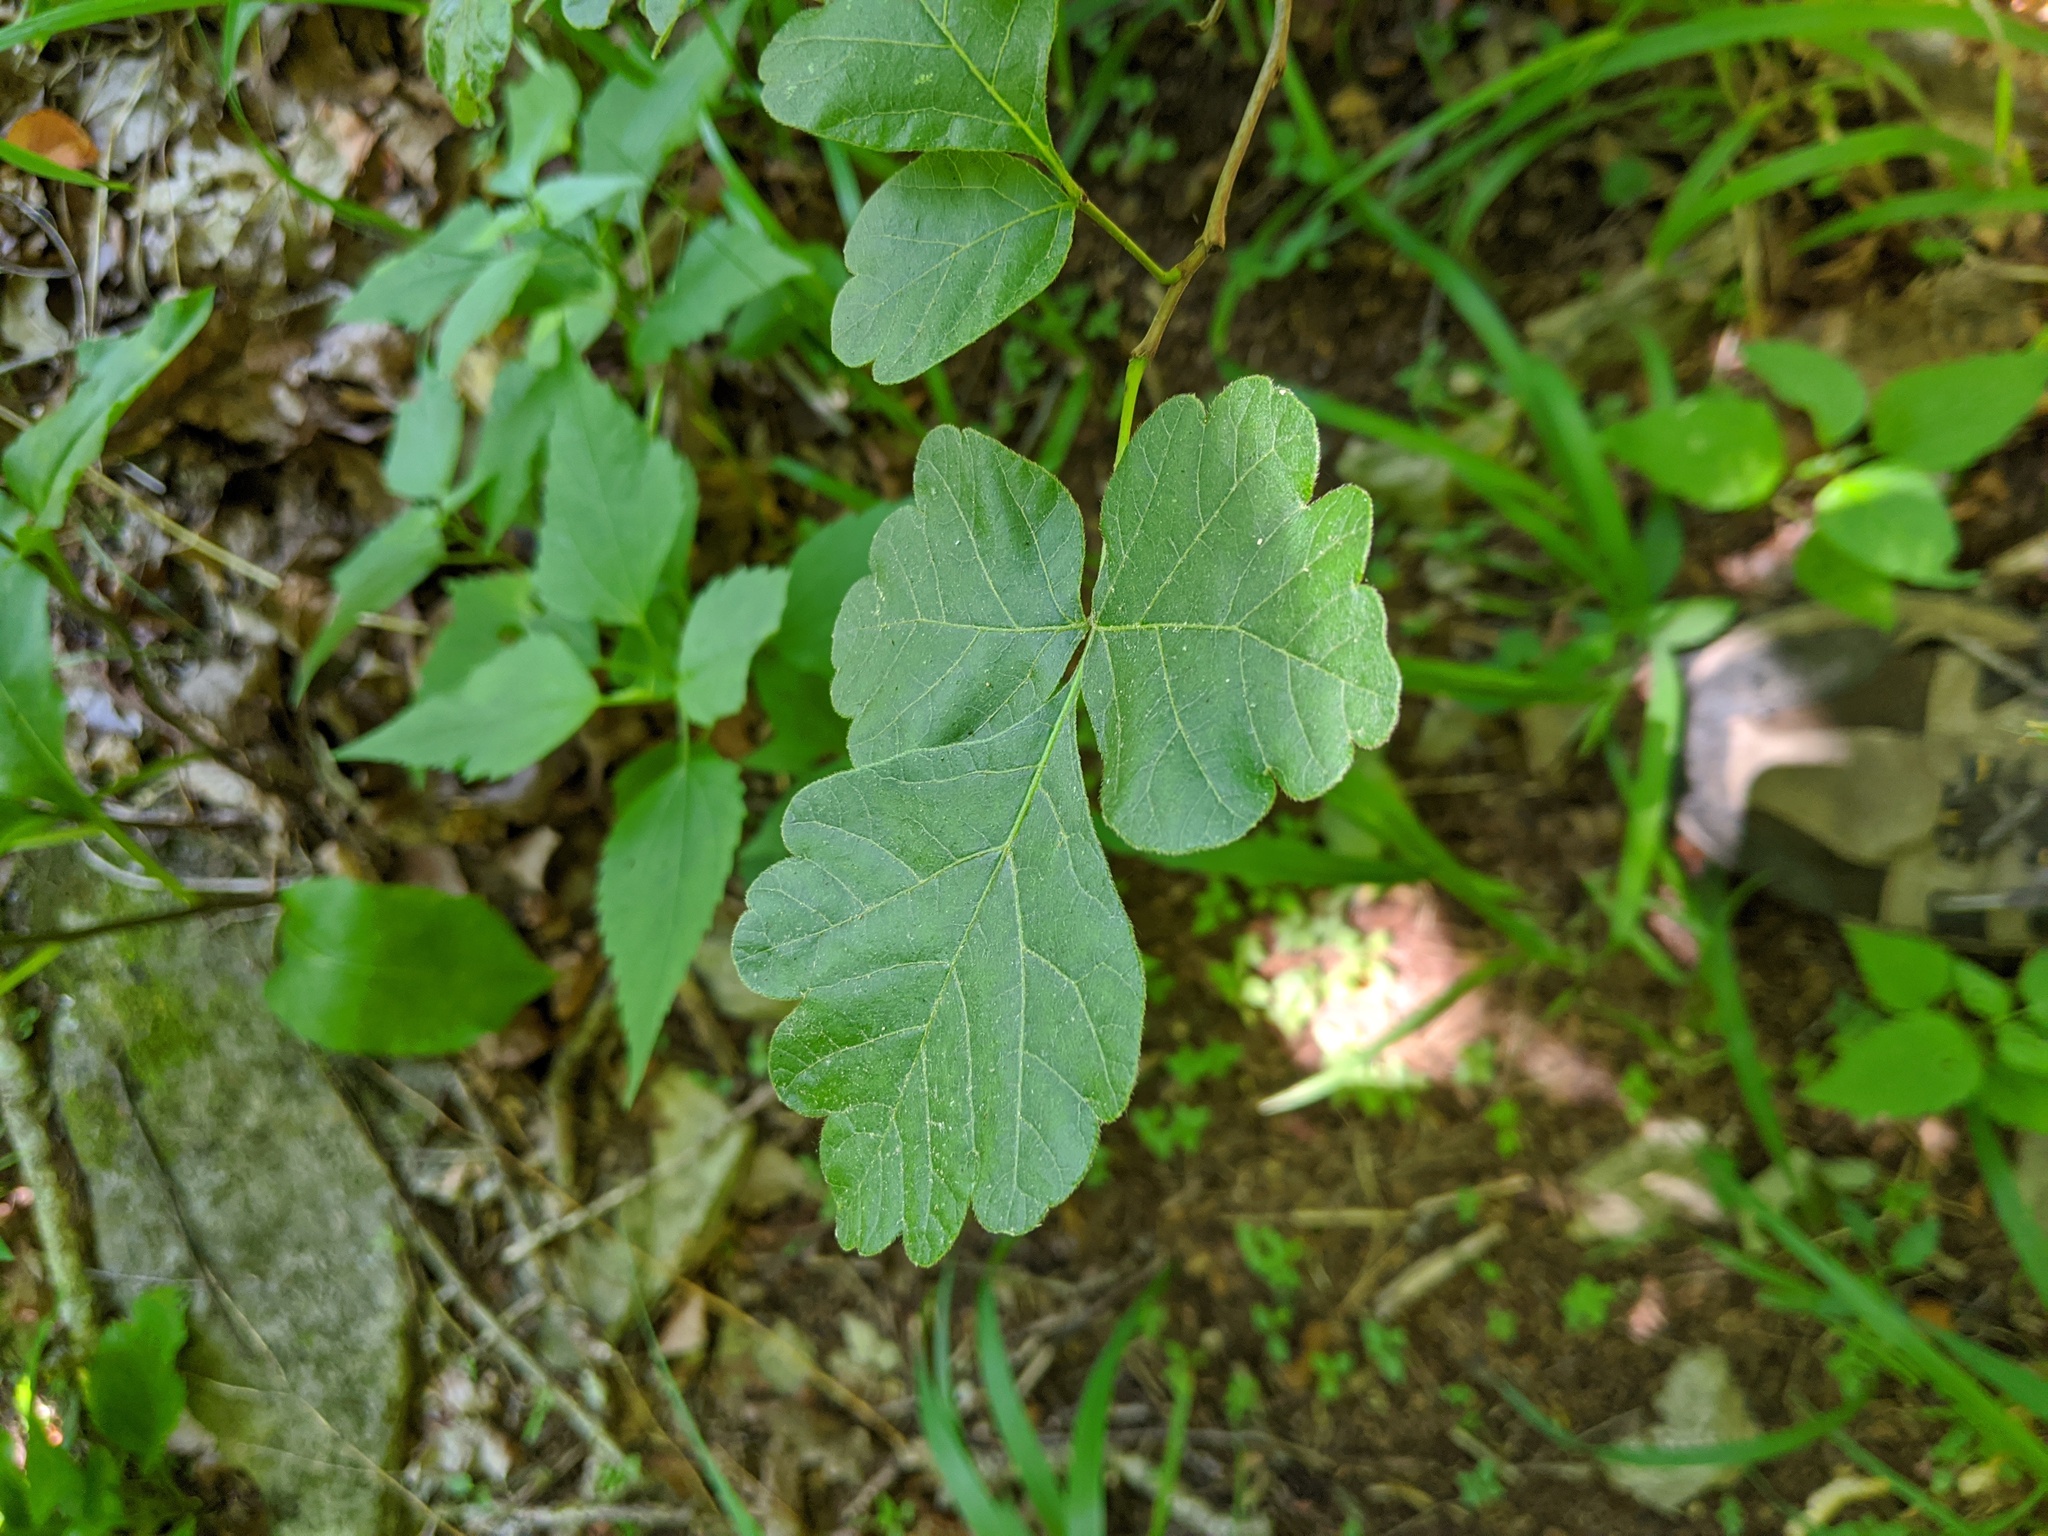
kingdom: Plantae
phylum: Tracheophyta
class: Magnoliopsida
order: Sapindales
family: Anacardiaceae
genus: Rhus
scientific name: Rhus aromatica
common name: Aromatic sumac
